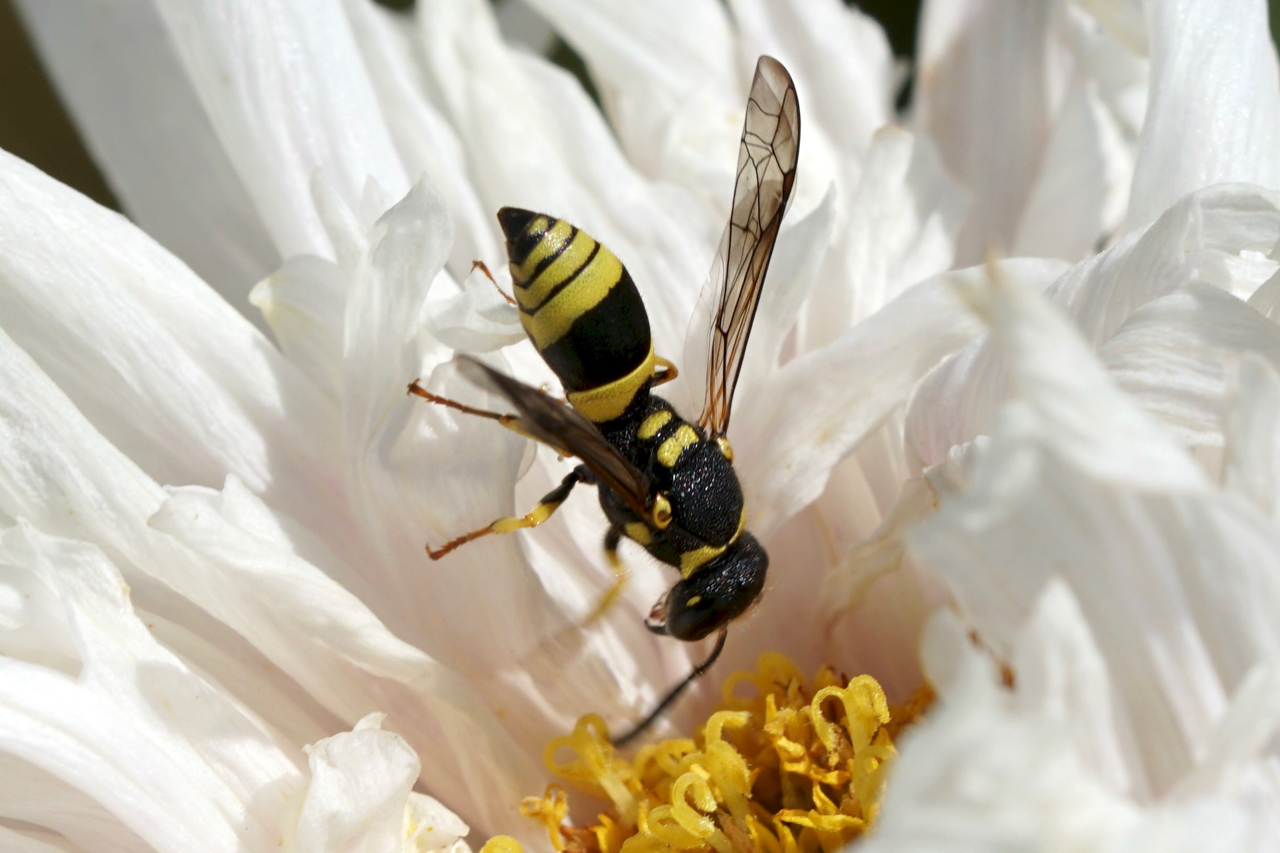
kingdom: Animalia
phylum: Arthropoda
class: Insecta
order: Hymenoptera
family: Vespidae
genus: Ancistrocerus
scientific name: Ancistrocerus gazella
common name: European tube wasp
